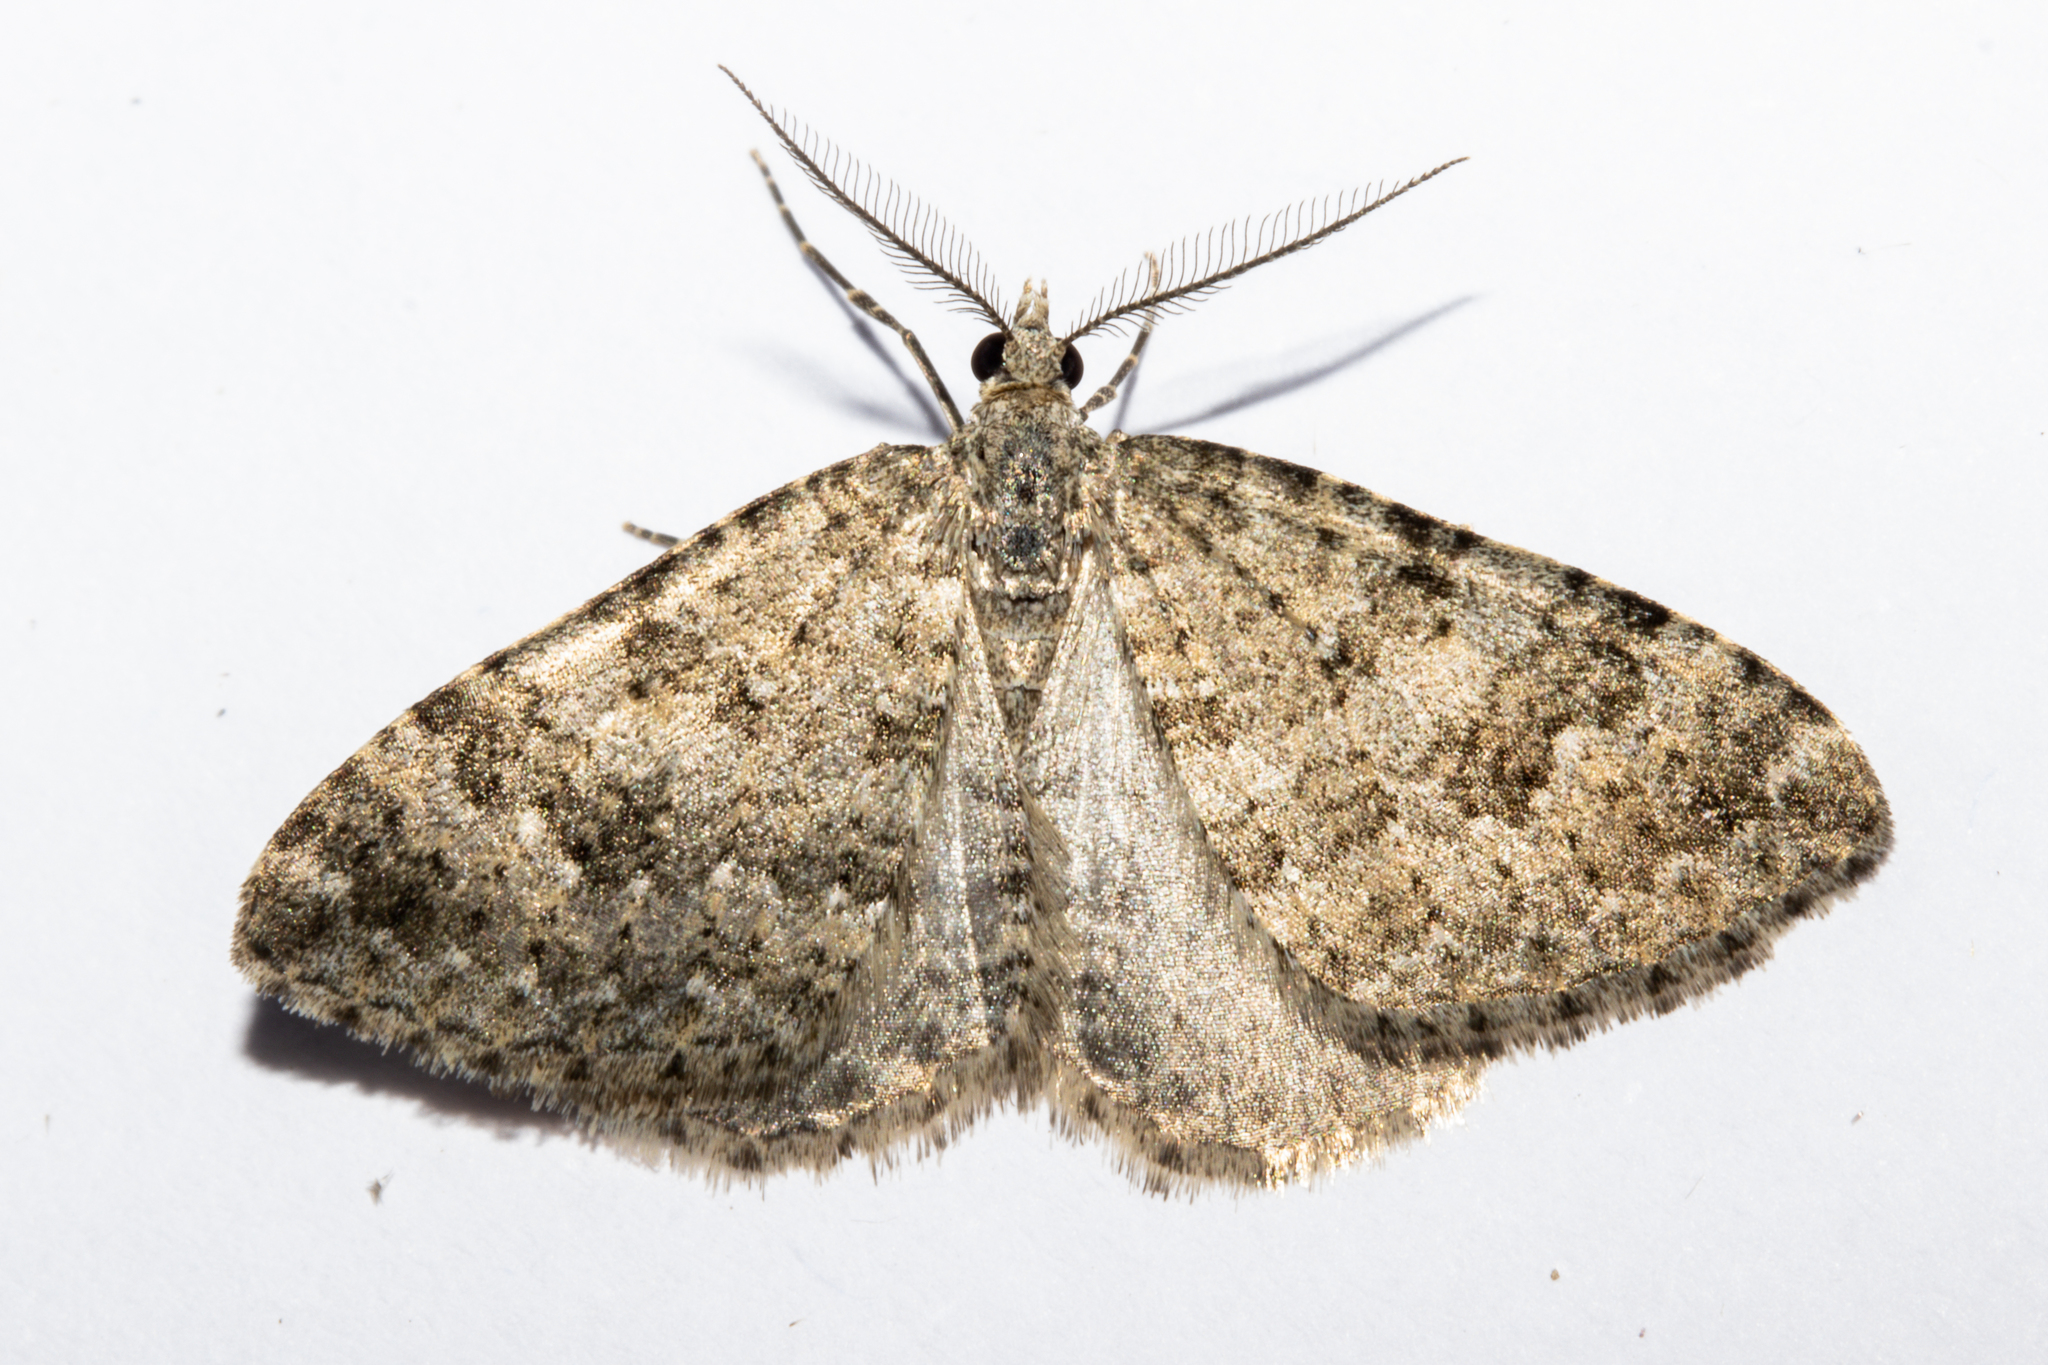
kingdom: Animalia
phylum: Arthropoda
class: Insecta
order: Lepidoptera
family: Geometridae
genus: Helastia
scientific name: Helastia corcularia
